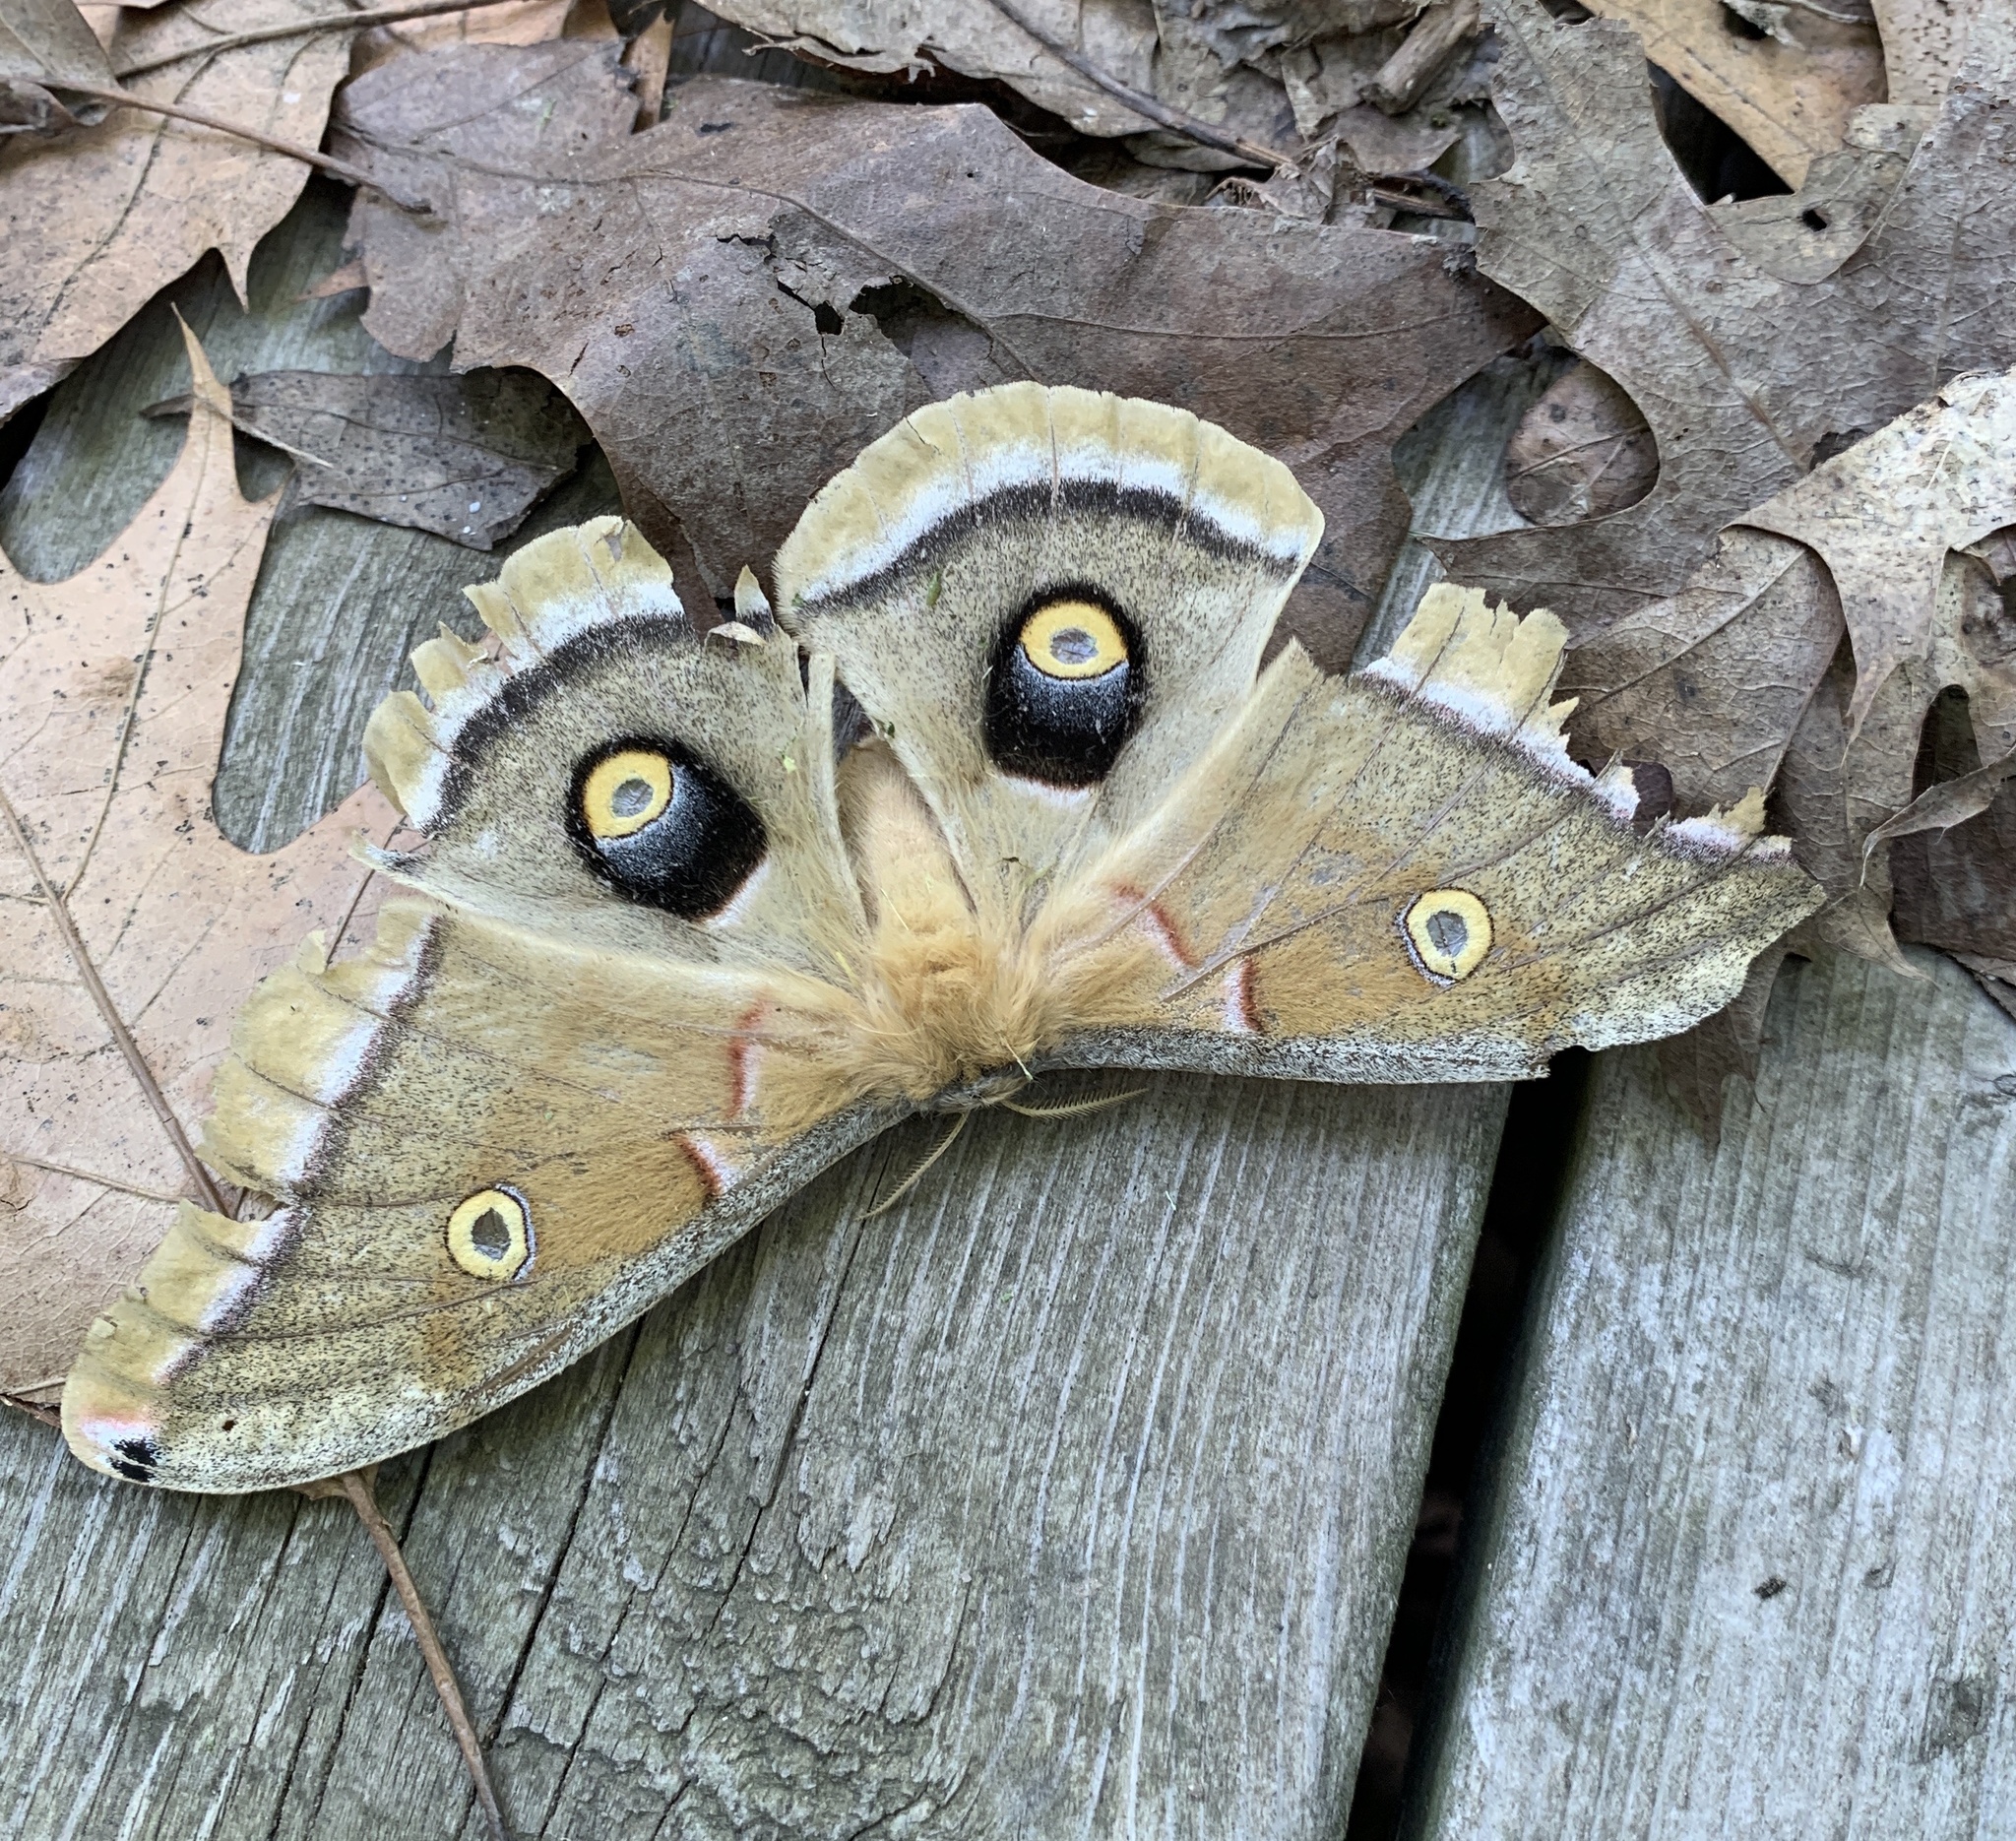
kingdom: Animalia
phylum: Arthropoda
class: Insecta
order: Lepidoptera
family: Saturniidae
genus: Antheraea
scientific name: Antheraea polyphemus
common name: Polyphemus moth
